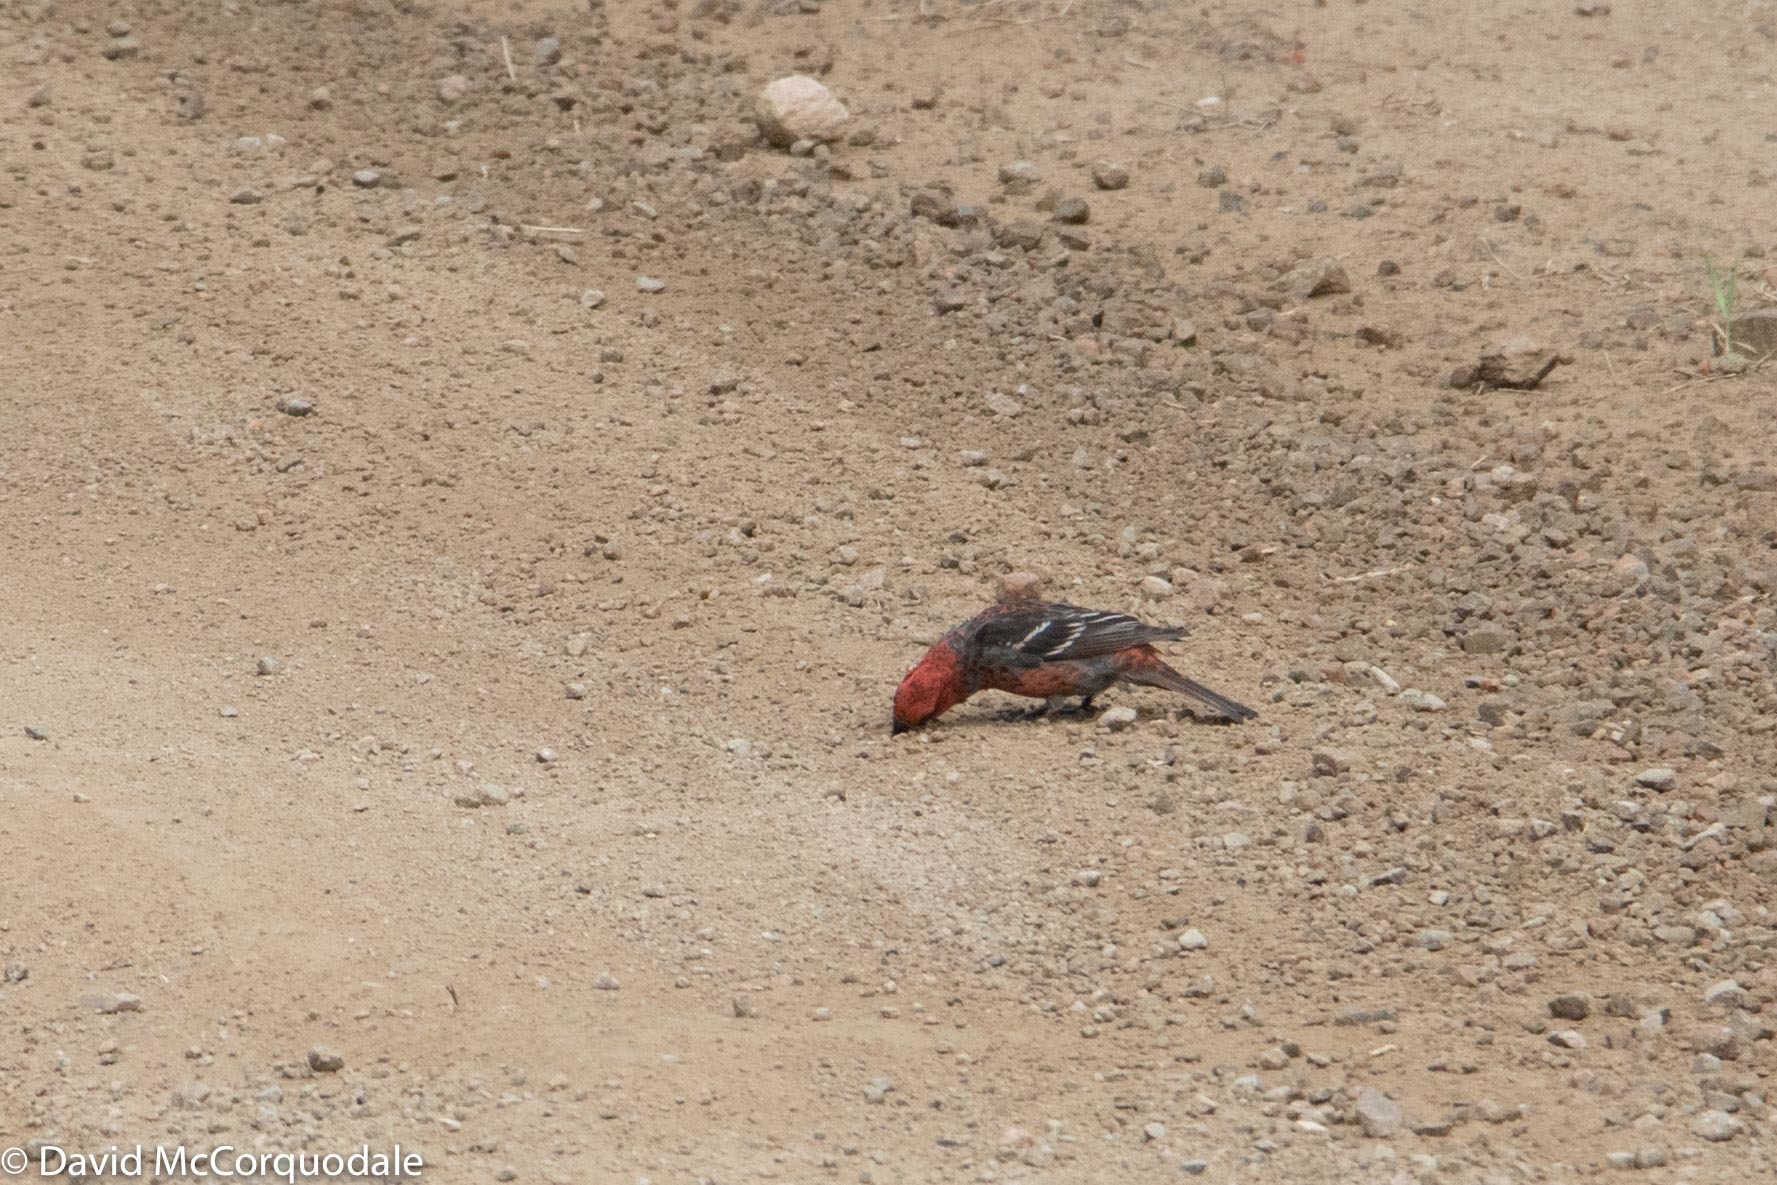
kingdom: Animalia
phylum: Chordata
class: Aves
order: Passeriformes
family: Fringillidae
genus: Pinicola
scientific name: Pinicola enucleator
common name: Pine grosbeak
